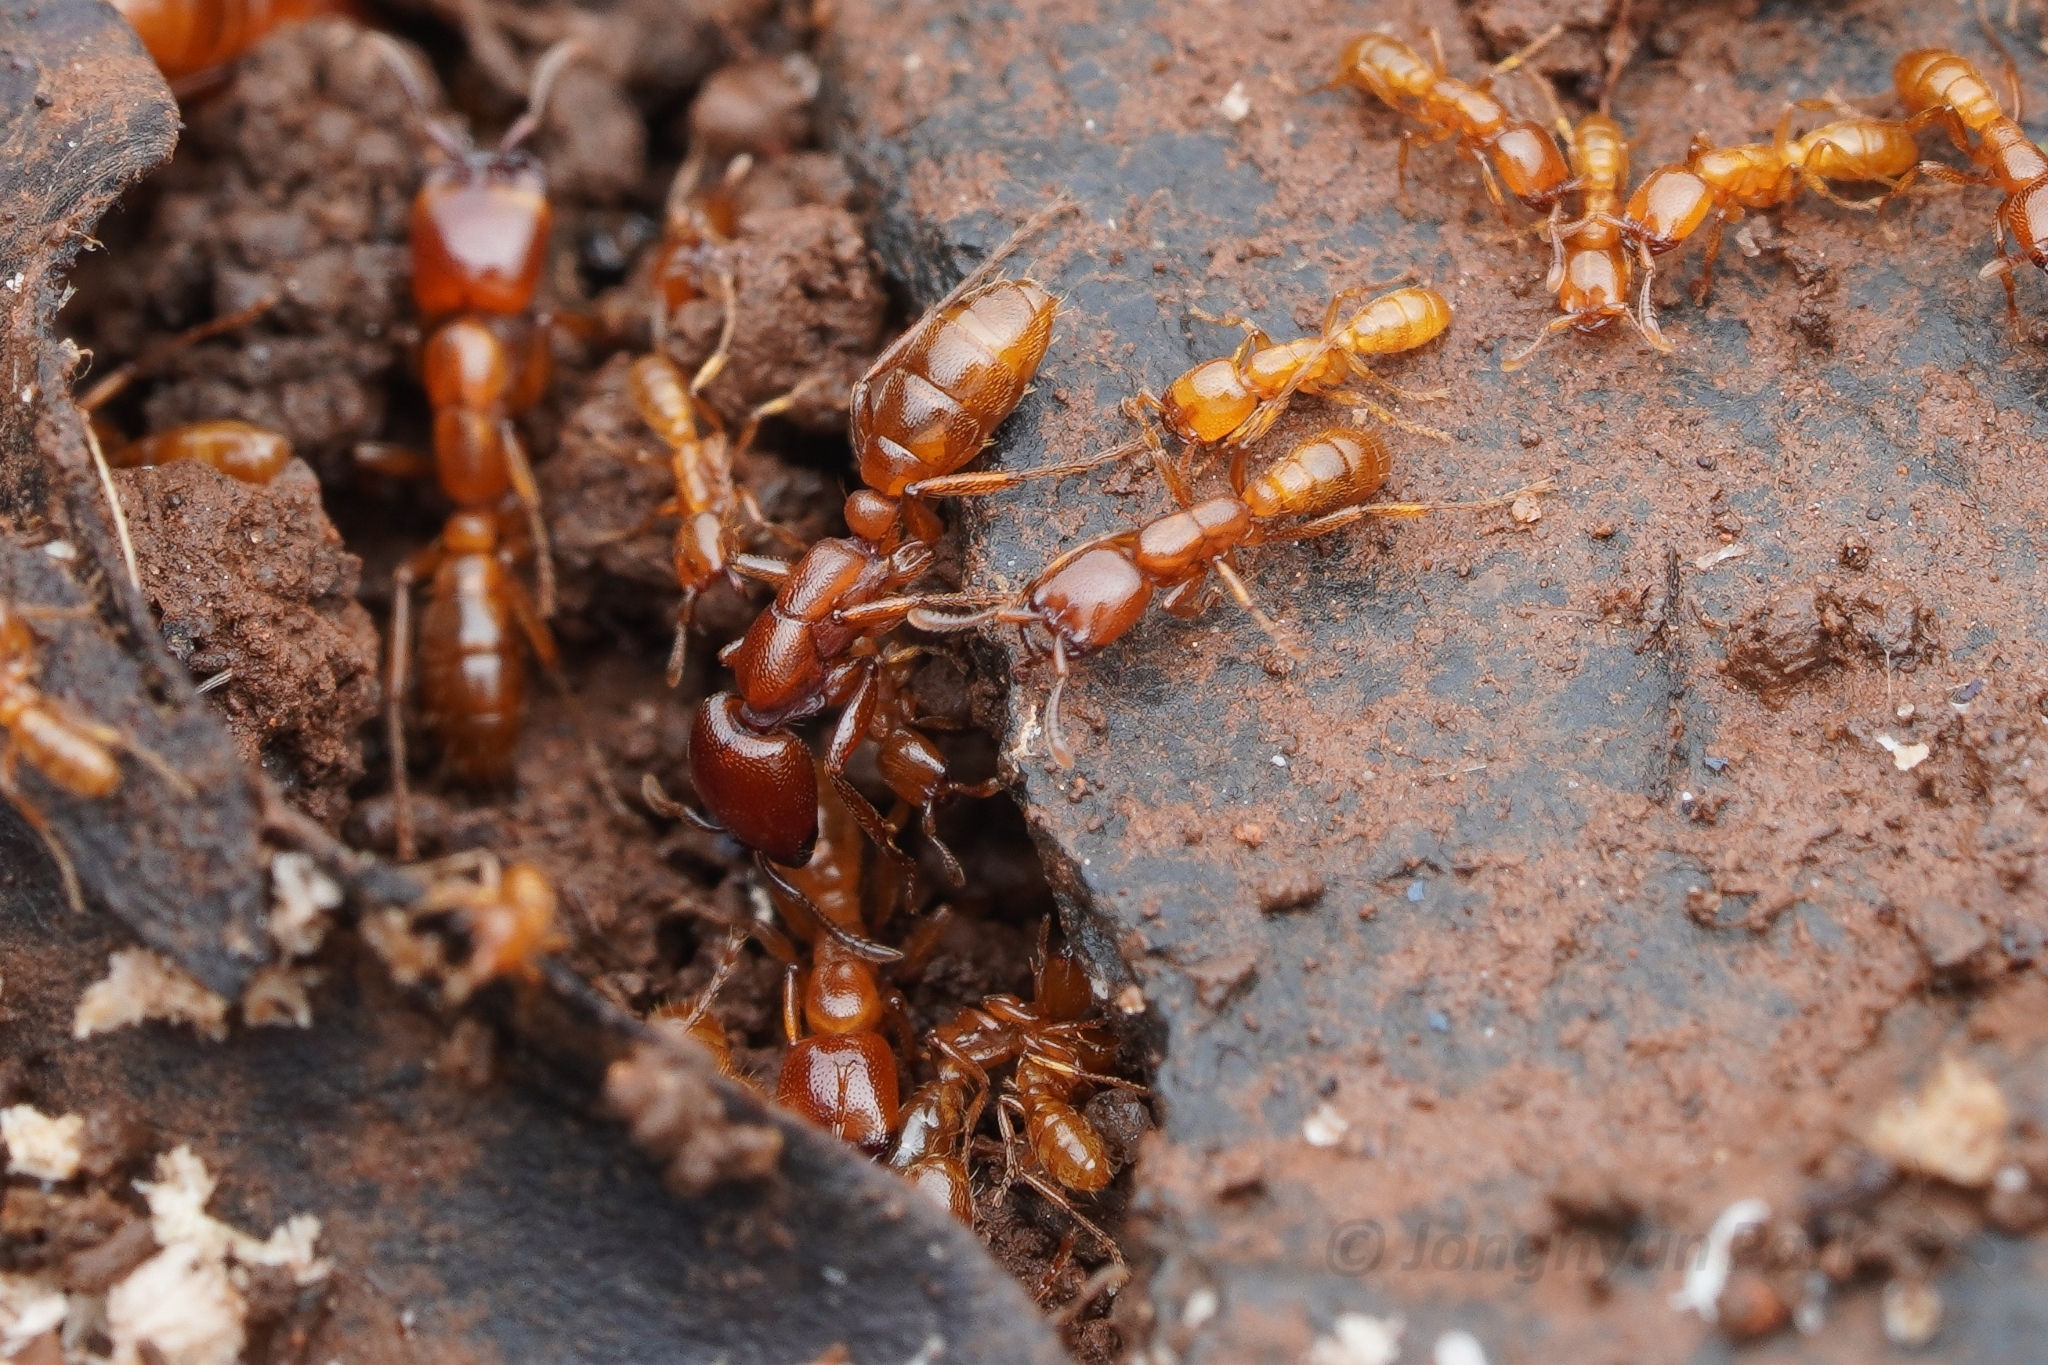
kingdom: Animalia
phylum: Arthropoda
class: Insecta
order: Hymenoptera
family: Formicidae
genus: Dorylus
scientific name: Dorylus helvolus
